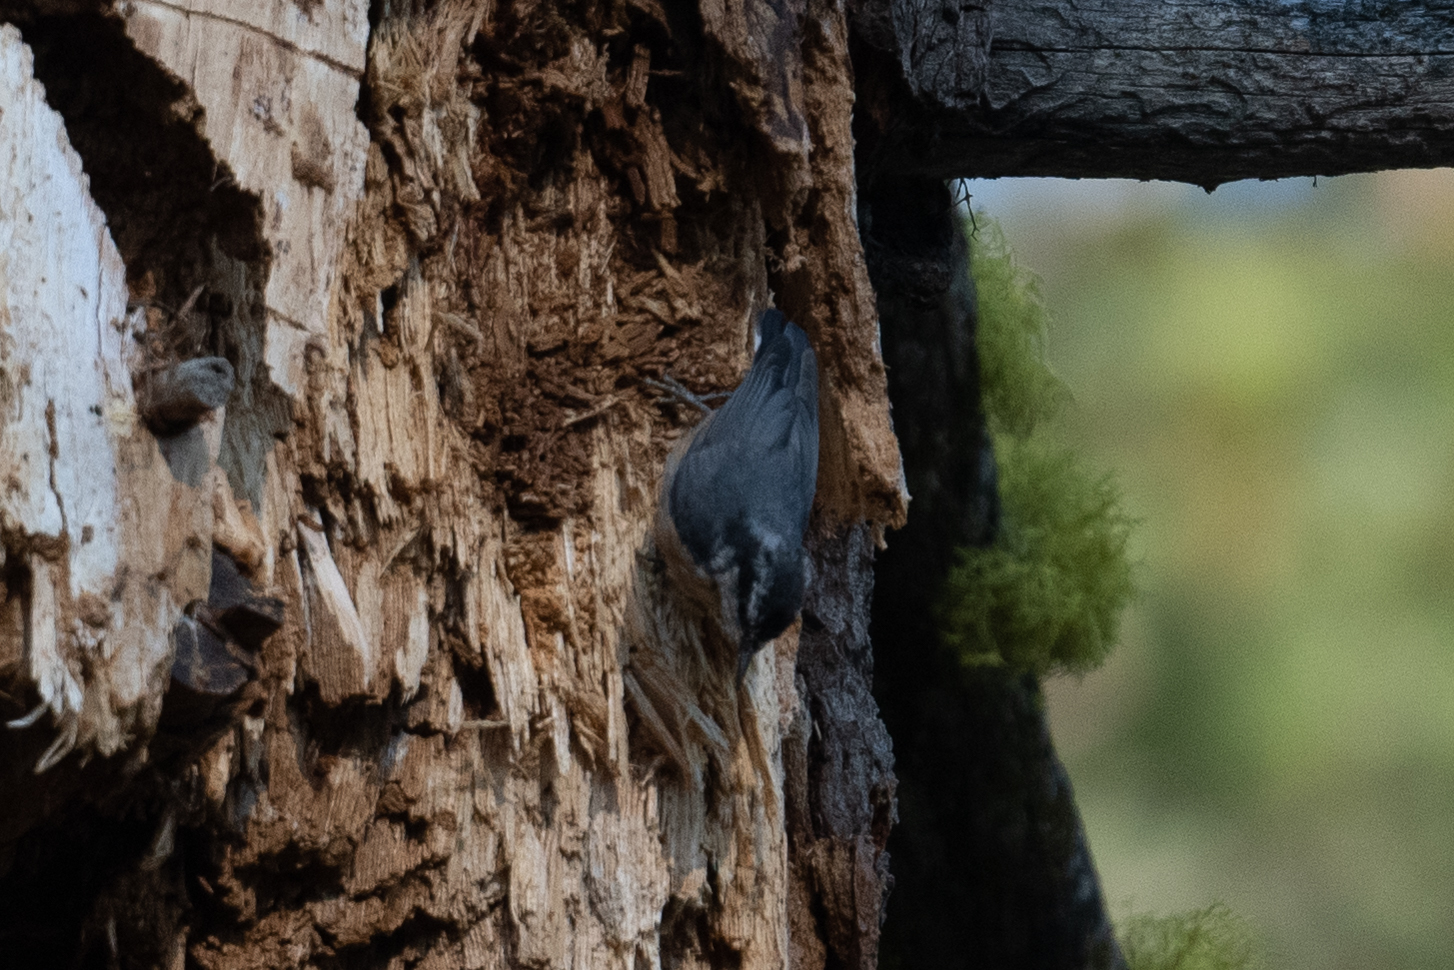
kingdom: Animalia
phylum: Chordata
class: Aves
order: Passeriformes
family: Sittidae
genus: Sitta
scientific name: Sitta canadensis
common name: Red-breasted nuthatch
